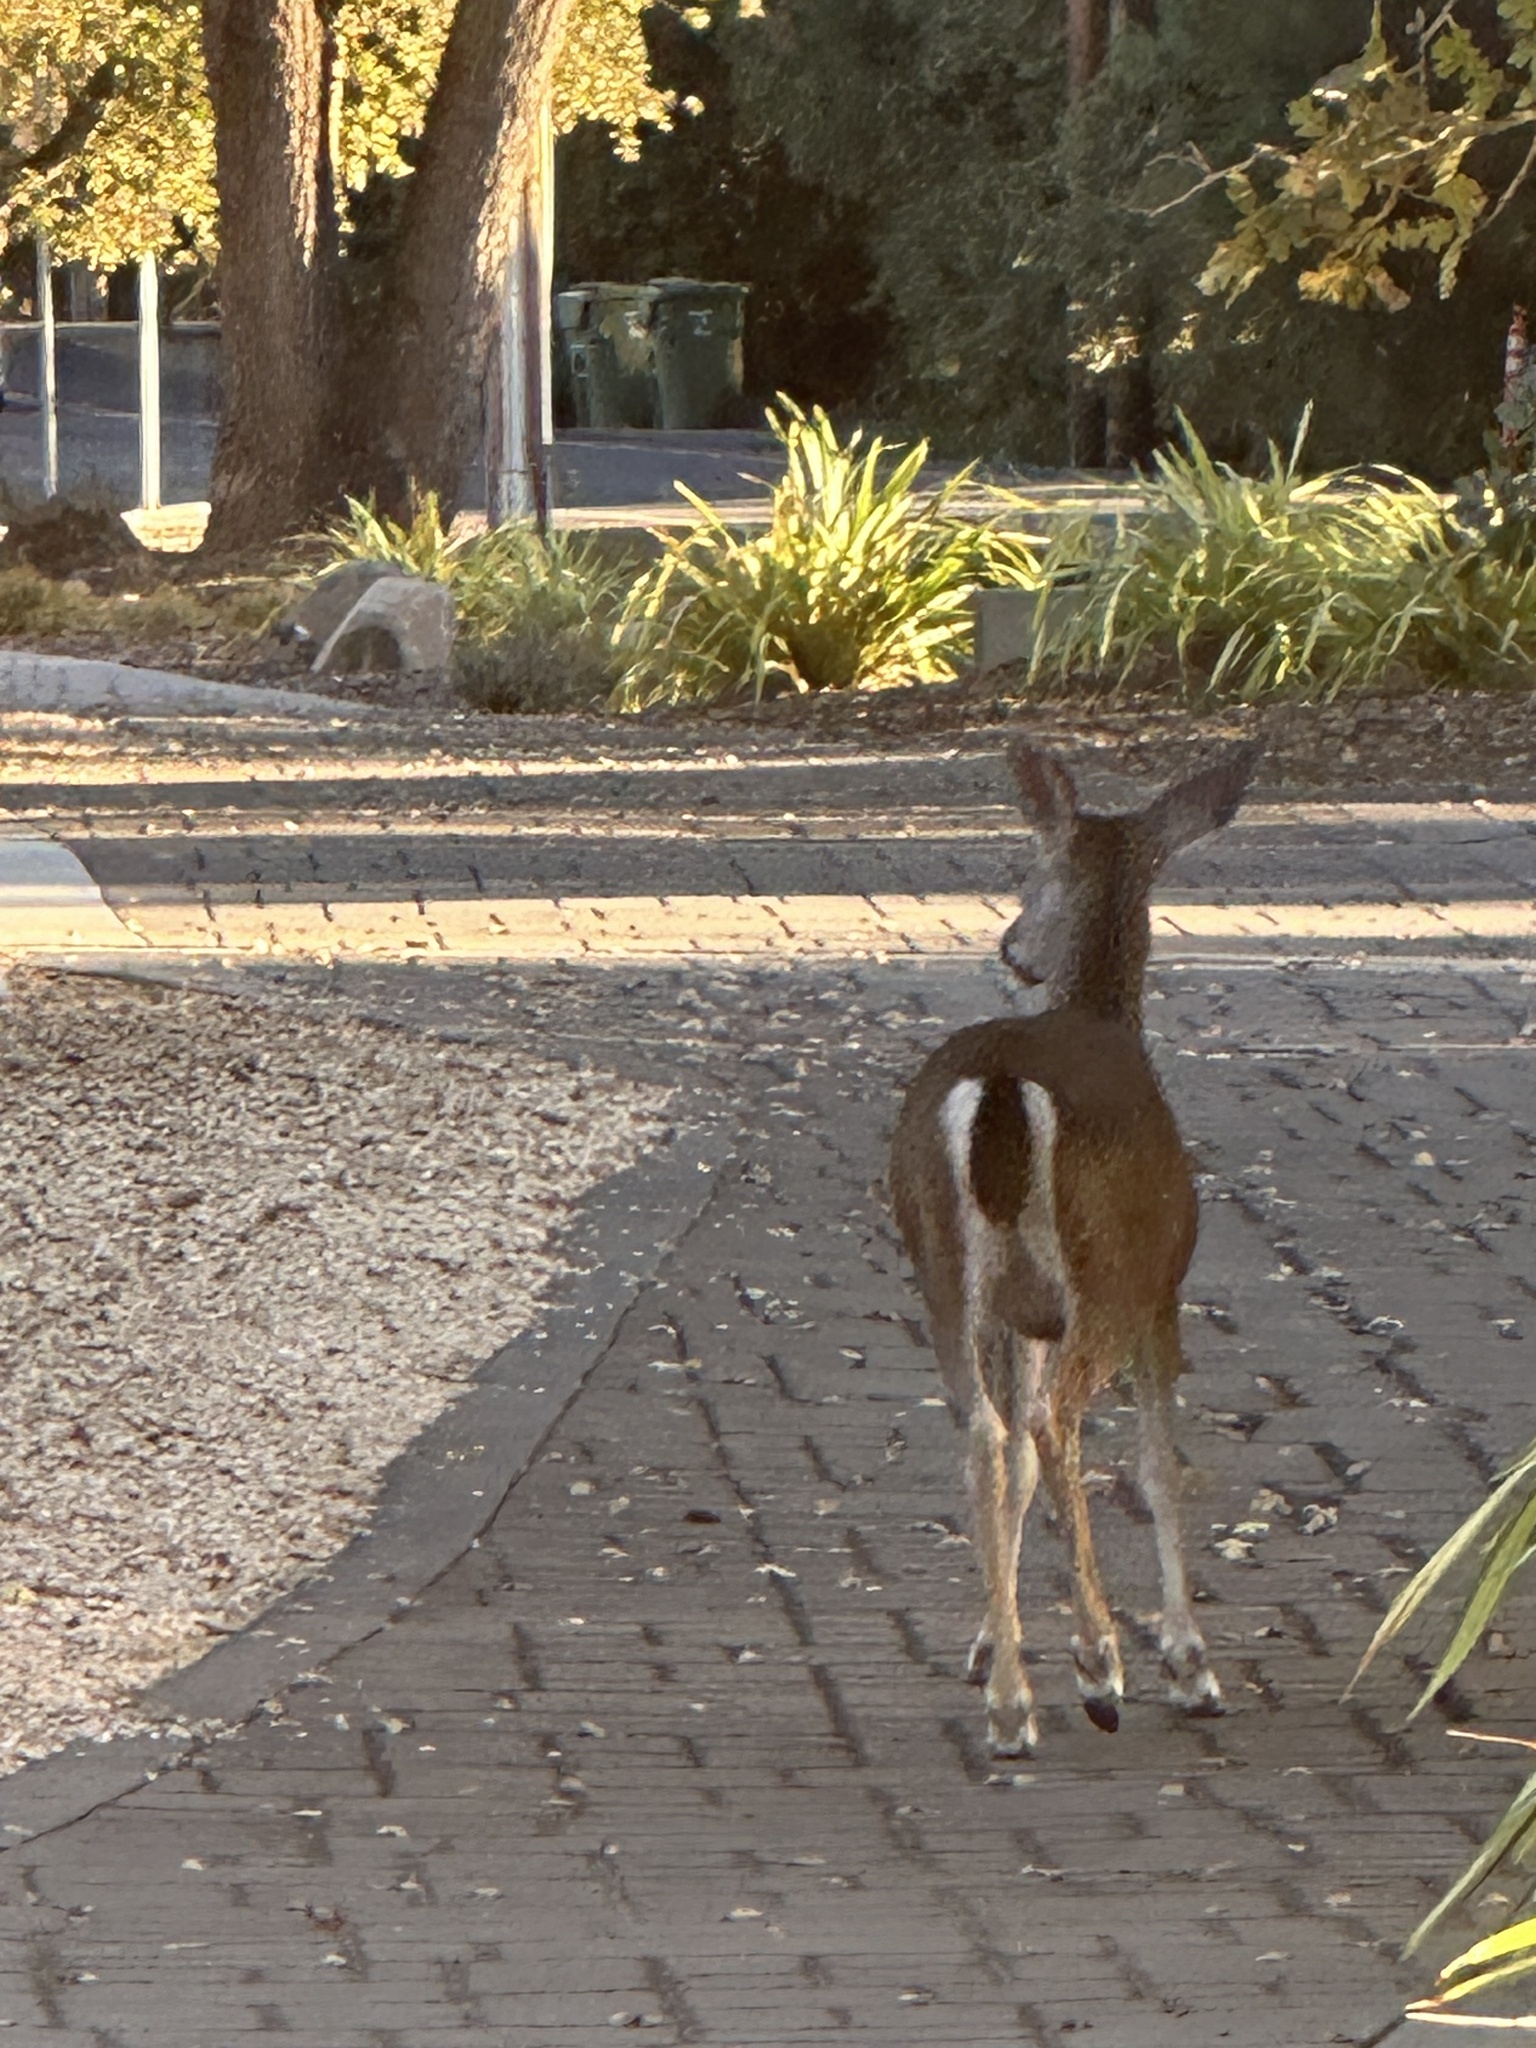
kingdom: Animalia
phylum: Chordata
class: Mammalia
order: Artiodactyla
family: Cervidae
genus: Odocoileus
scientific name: Odocoileus hemionus
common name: Mule deer
